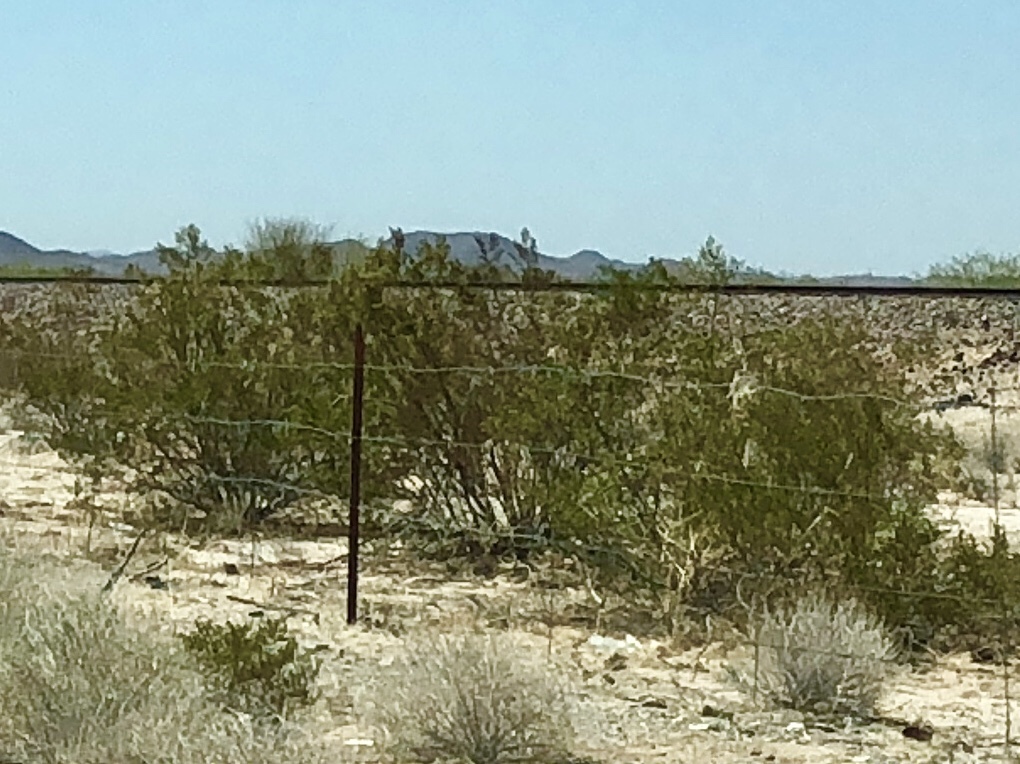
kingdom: Plantae
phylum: Tracheophyta
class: Magnoliopsida
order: Zygophyllales
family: Zygophyllaceae
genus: Larrea
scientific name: Larrea tridentata
